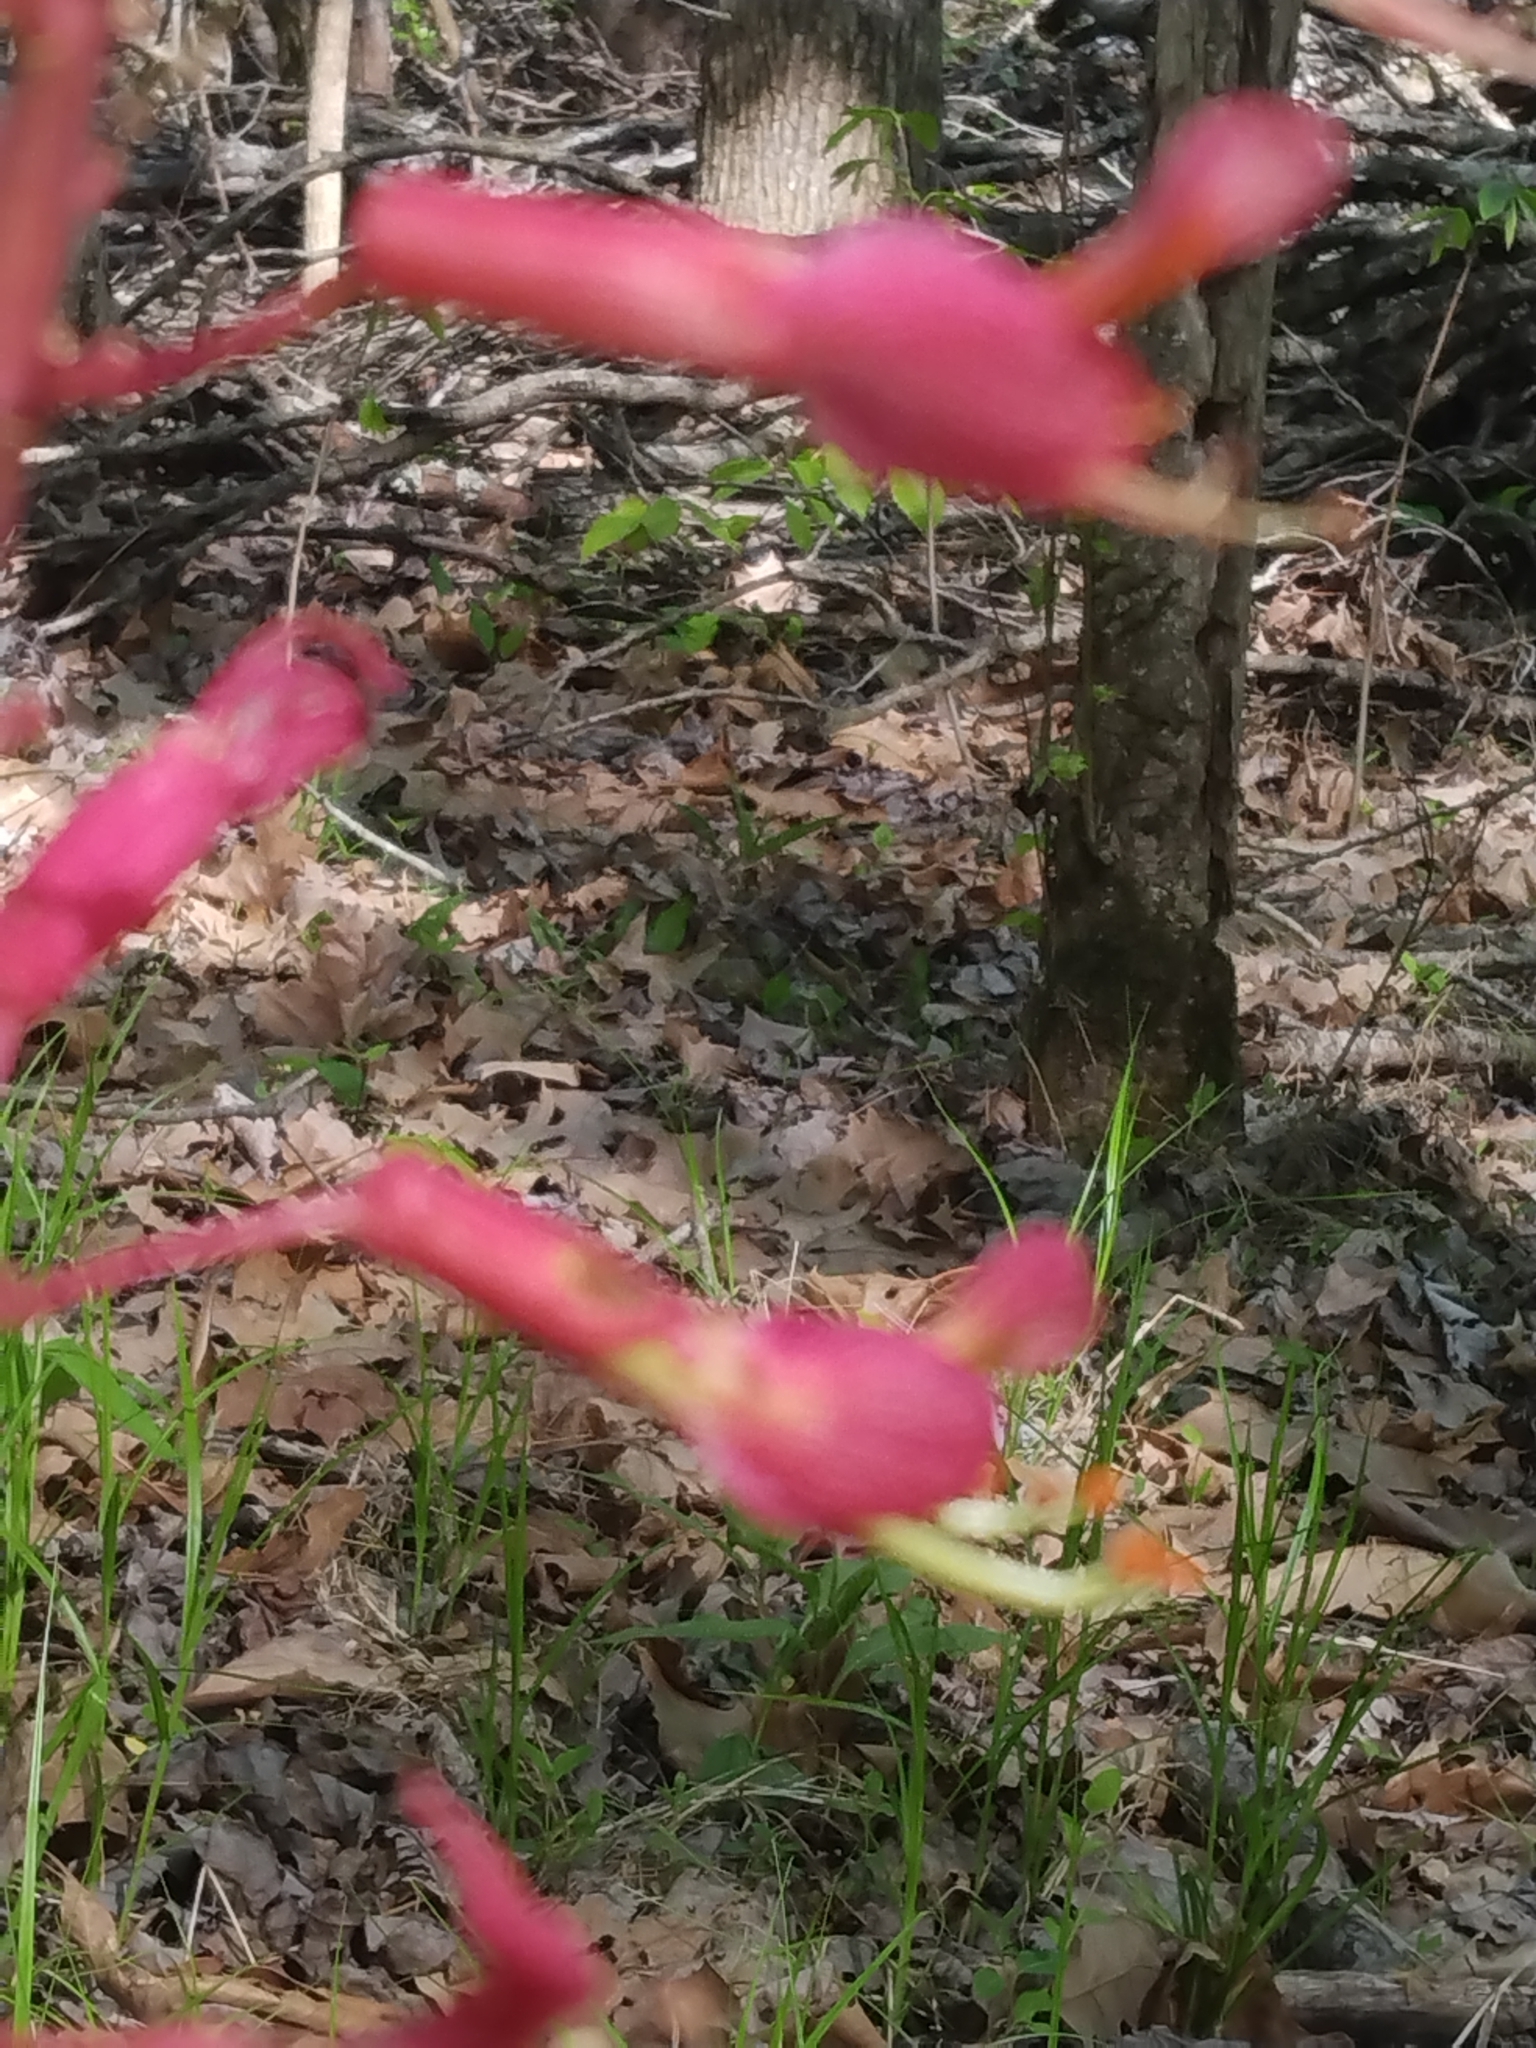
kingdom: Plantae
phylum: Tracheophyta
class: Magnoliopsida
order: Sapindales
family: Sapindaceae
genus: Aesculus
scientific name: Aesculus pavia
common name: Red buckeye
